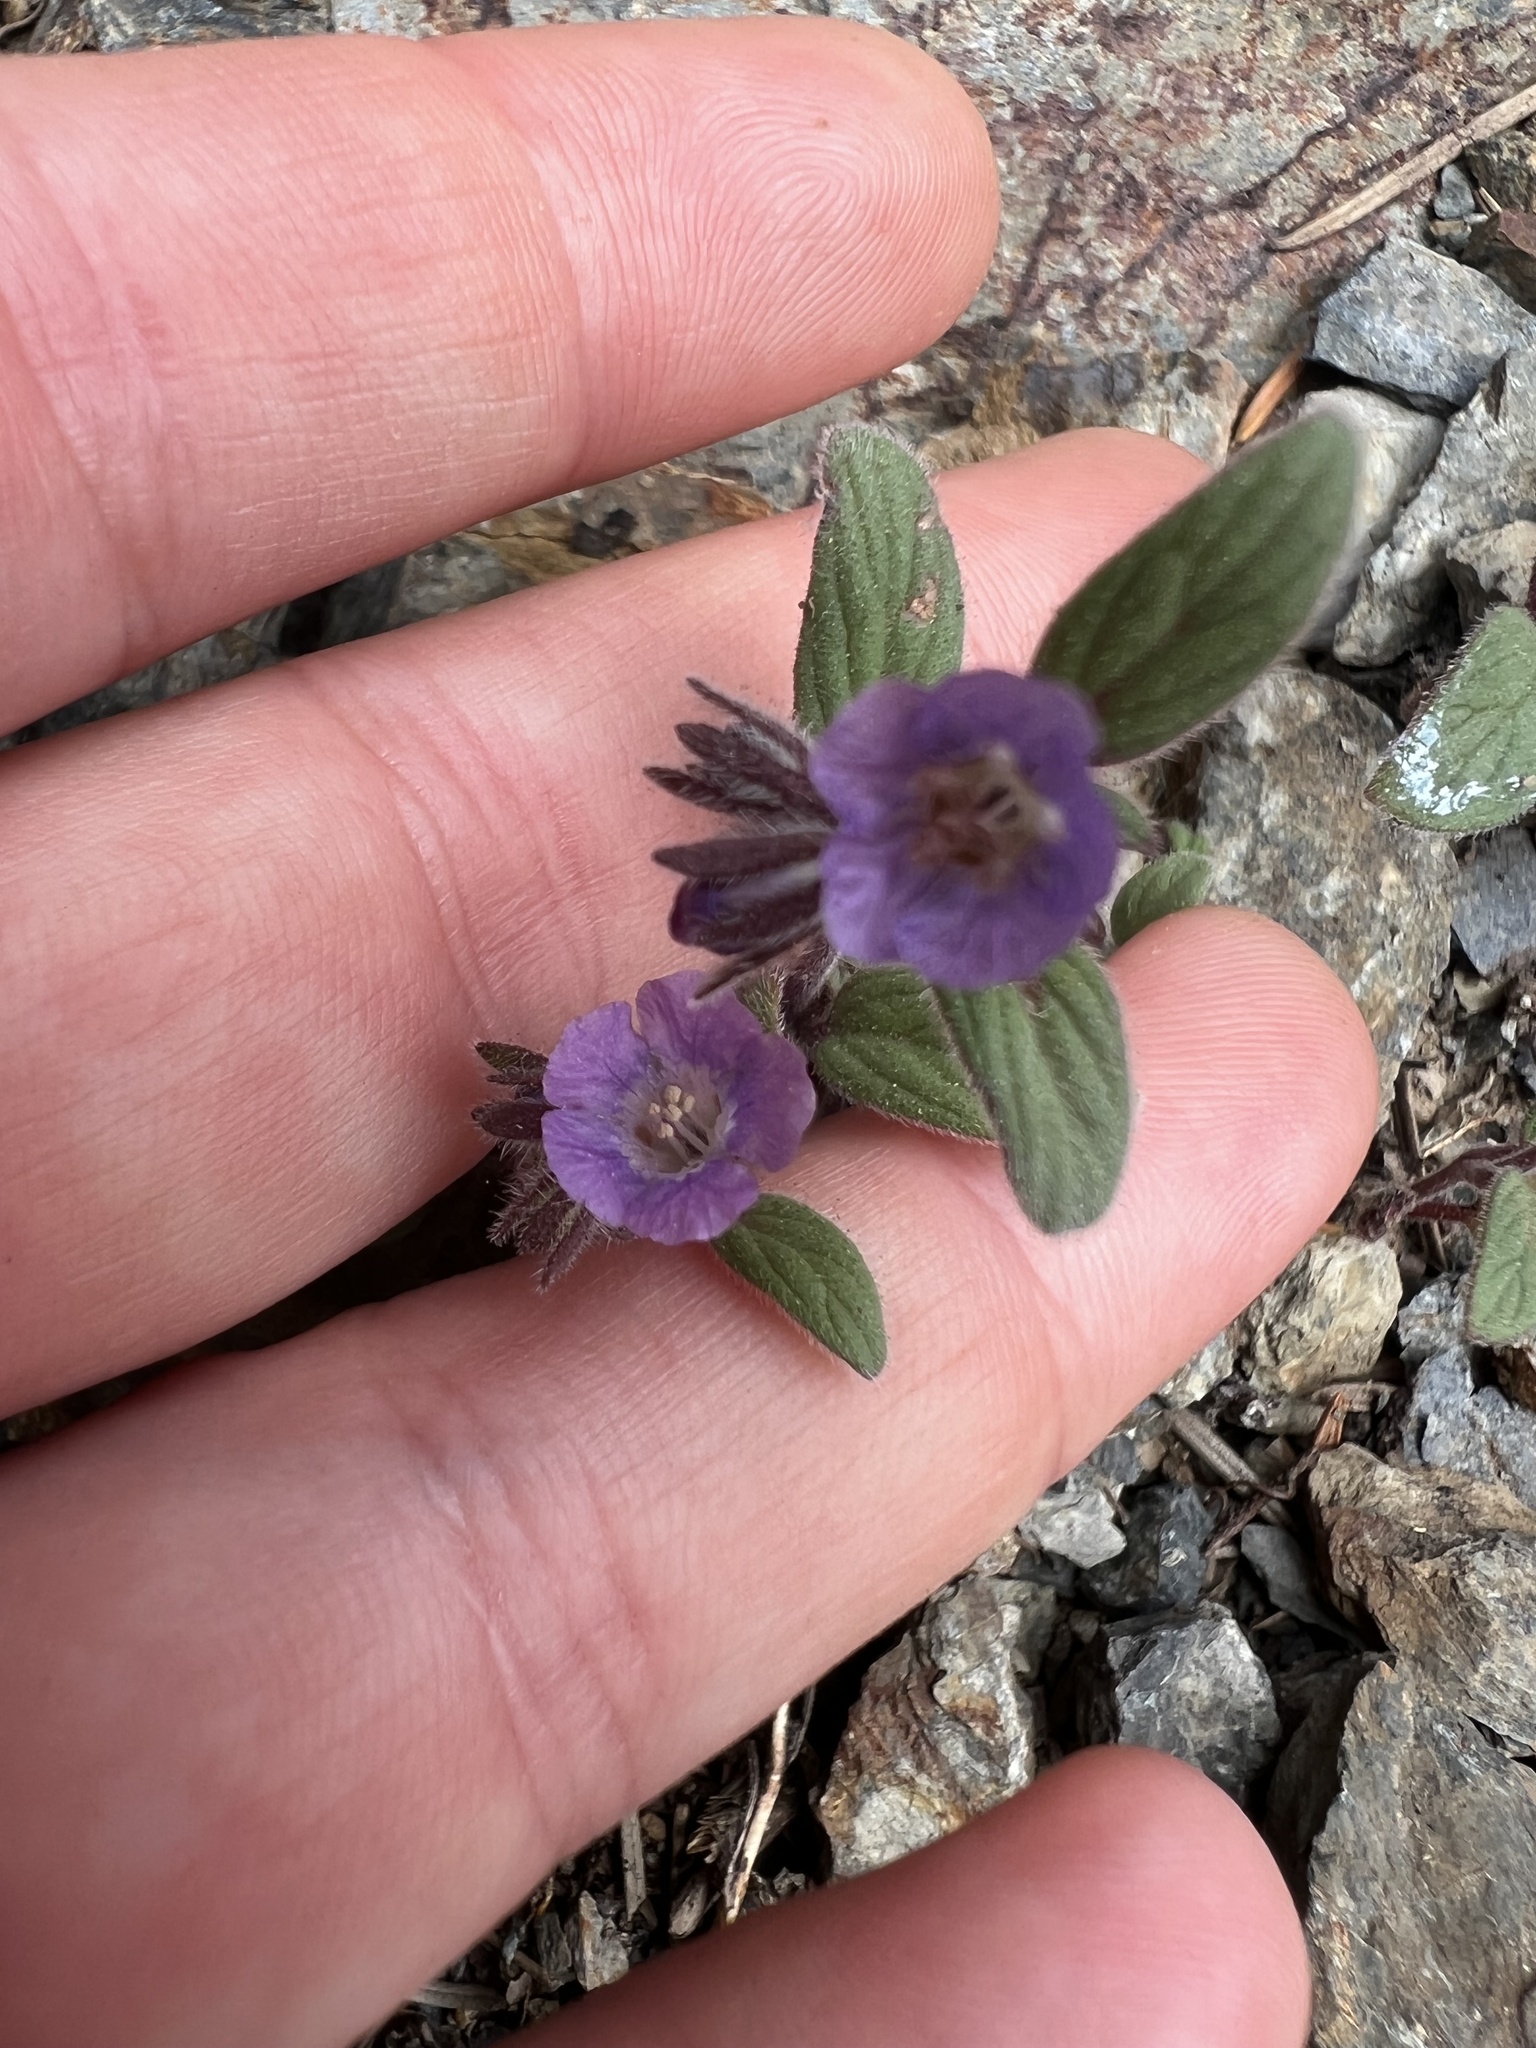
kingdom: Plantae
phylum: Tracheophyta
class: Magnoliopsida
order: Boraginales
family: Hydrophyllaceae
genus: Phacelia
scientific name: Phacelia vallicola
